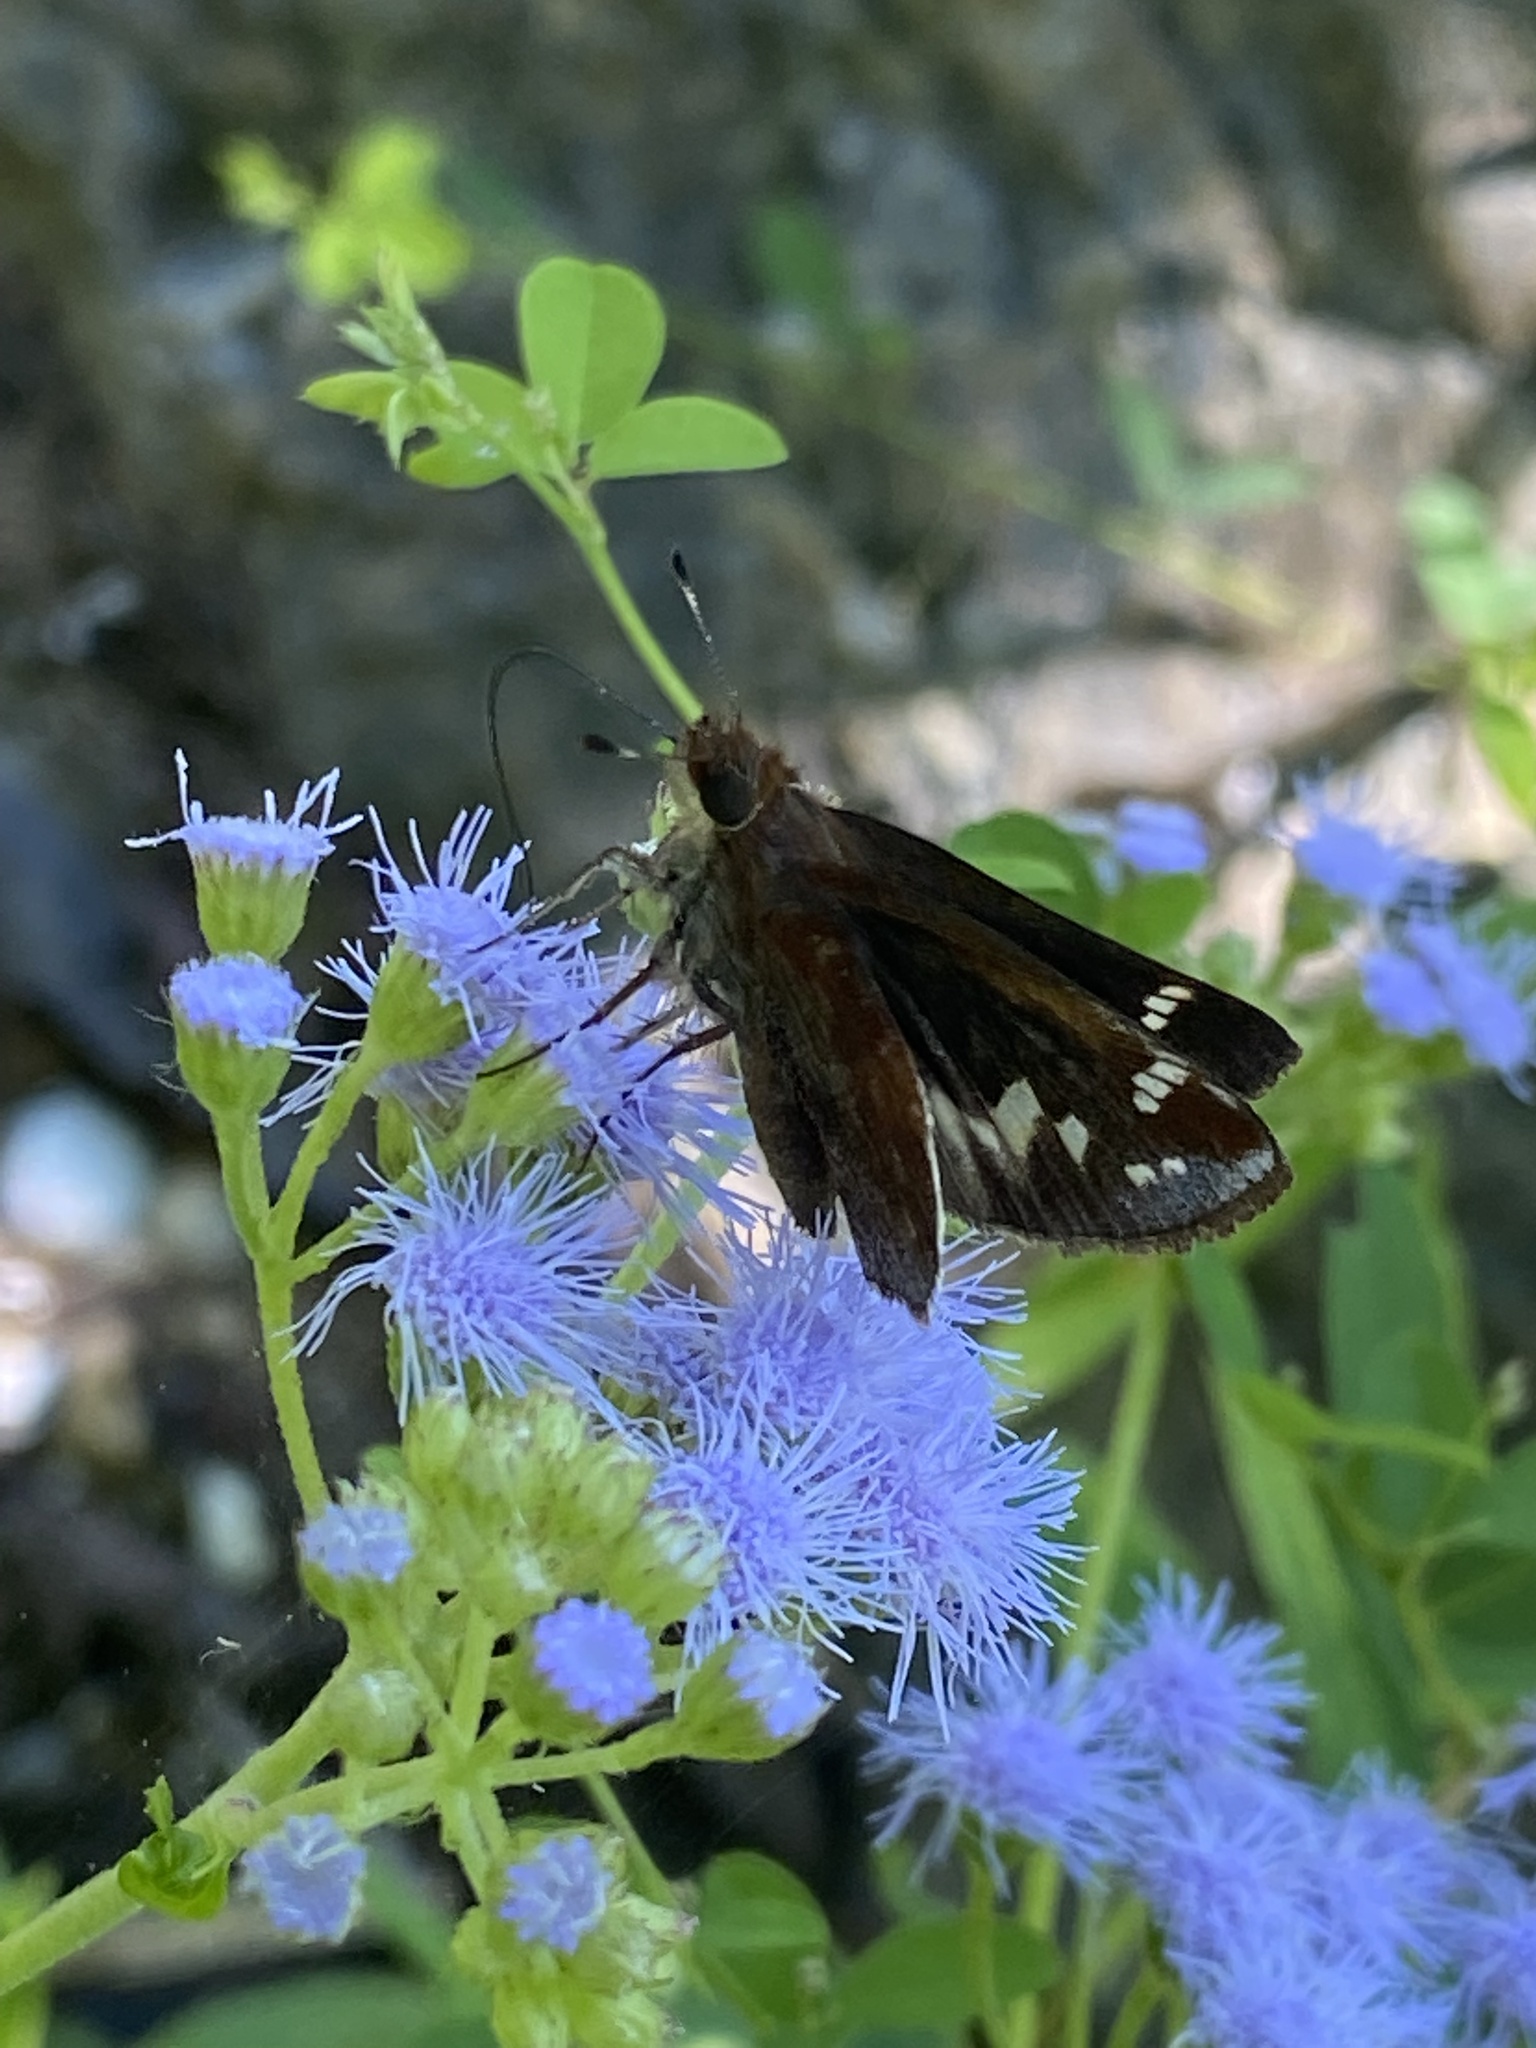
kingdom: Animalia
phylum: Arthropoda
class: Insecta
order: Lepidoptera
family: Hesperiidae
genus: Lon
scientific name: Lon zabulon
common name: Zabulon skipper
